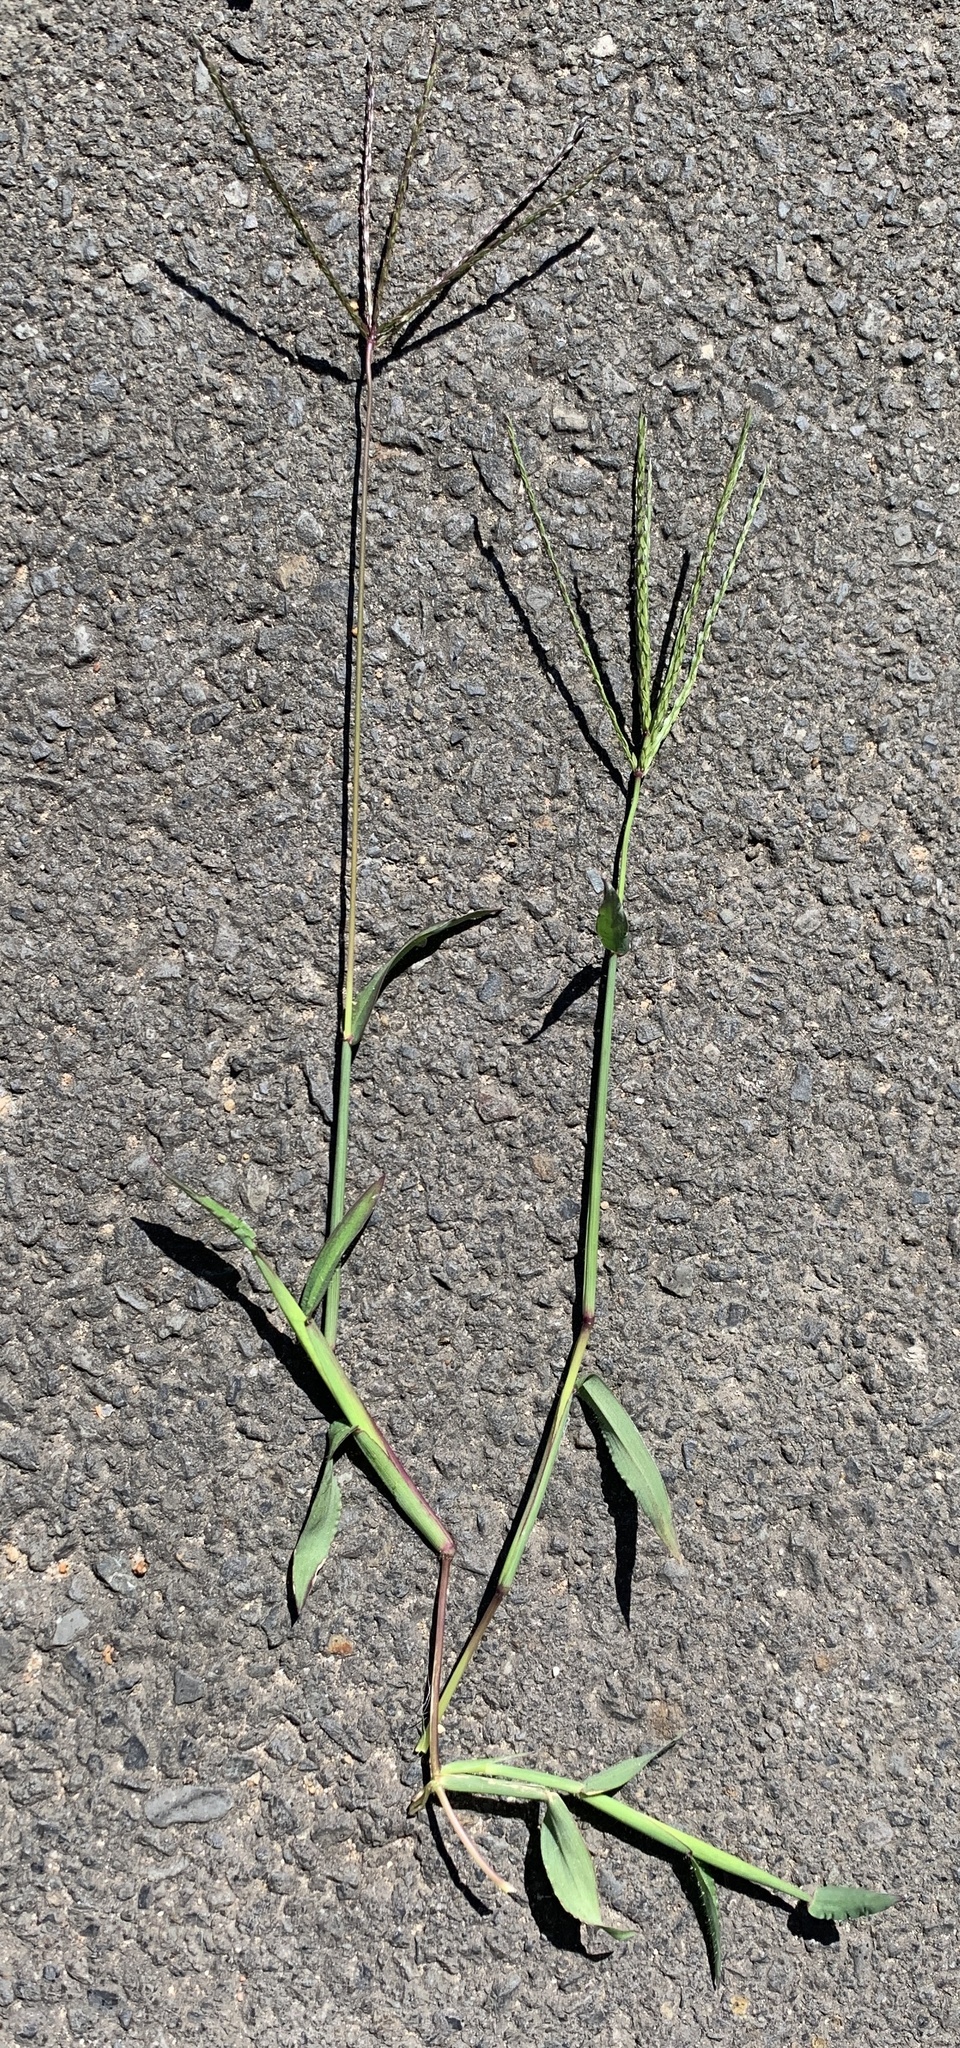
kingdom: Plantae
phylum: Tracheophyta
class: Liliopsida
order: Poales
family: Poaceae
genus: Digitaria
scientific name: Digitaria sanguinalis
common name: Hairy crabgrass
